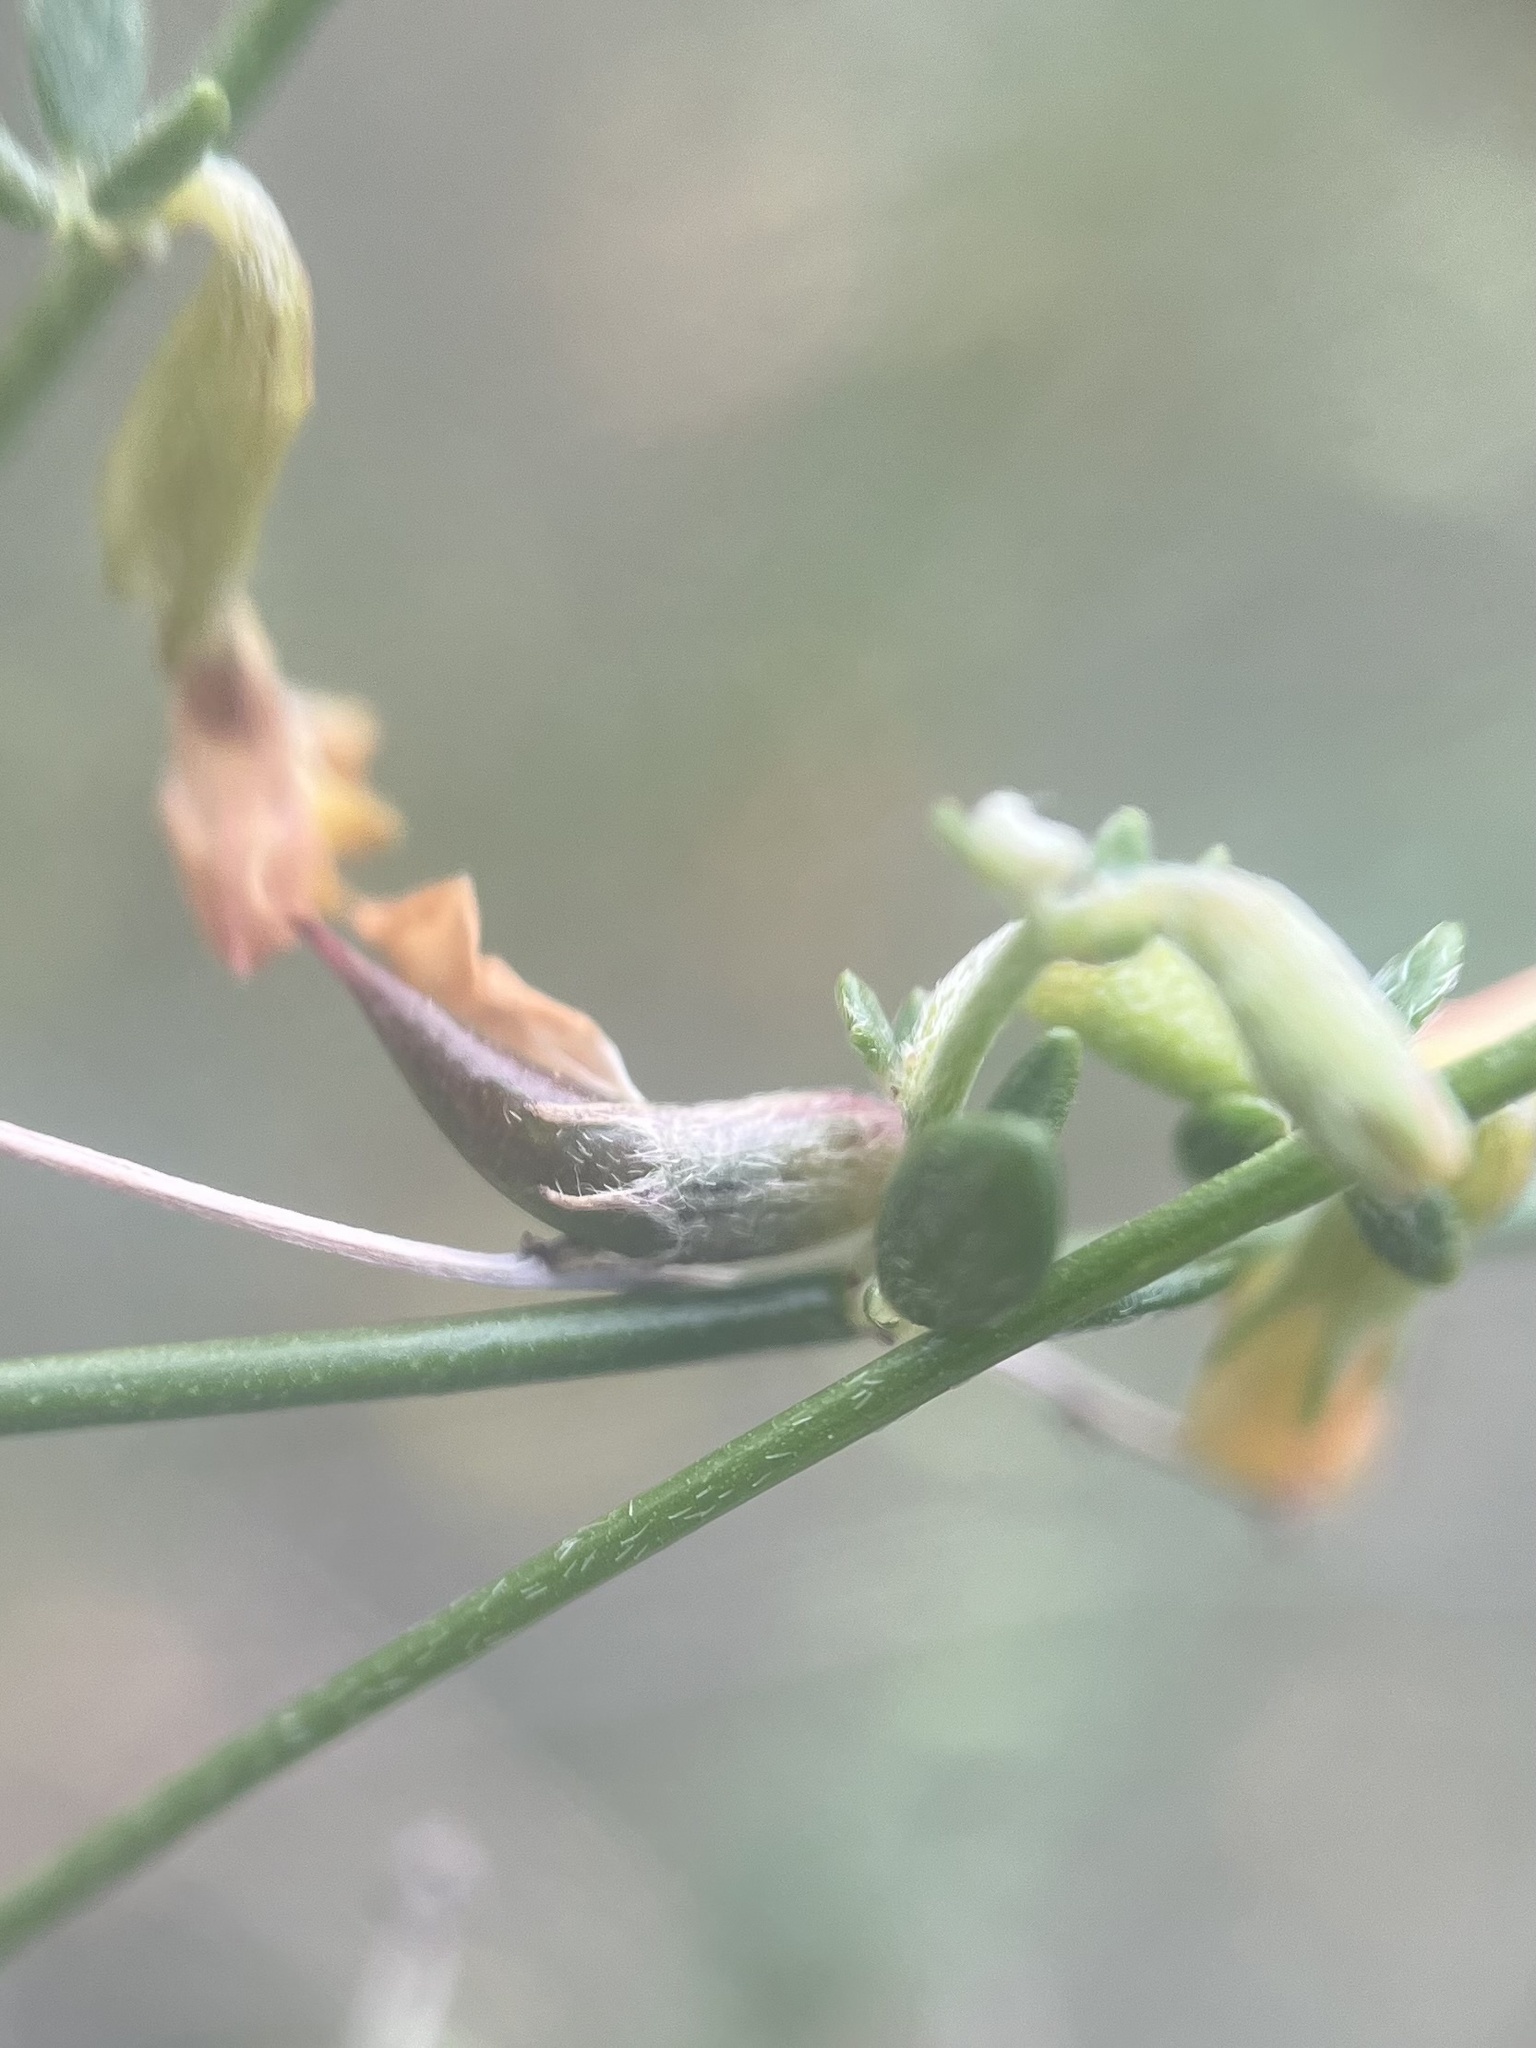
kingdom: Plantae
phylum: Tracheophyta
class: Magnoliopsida
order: Fabales
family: Fabaceae
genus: Acmispon
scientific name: Acmispon glaber
